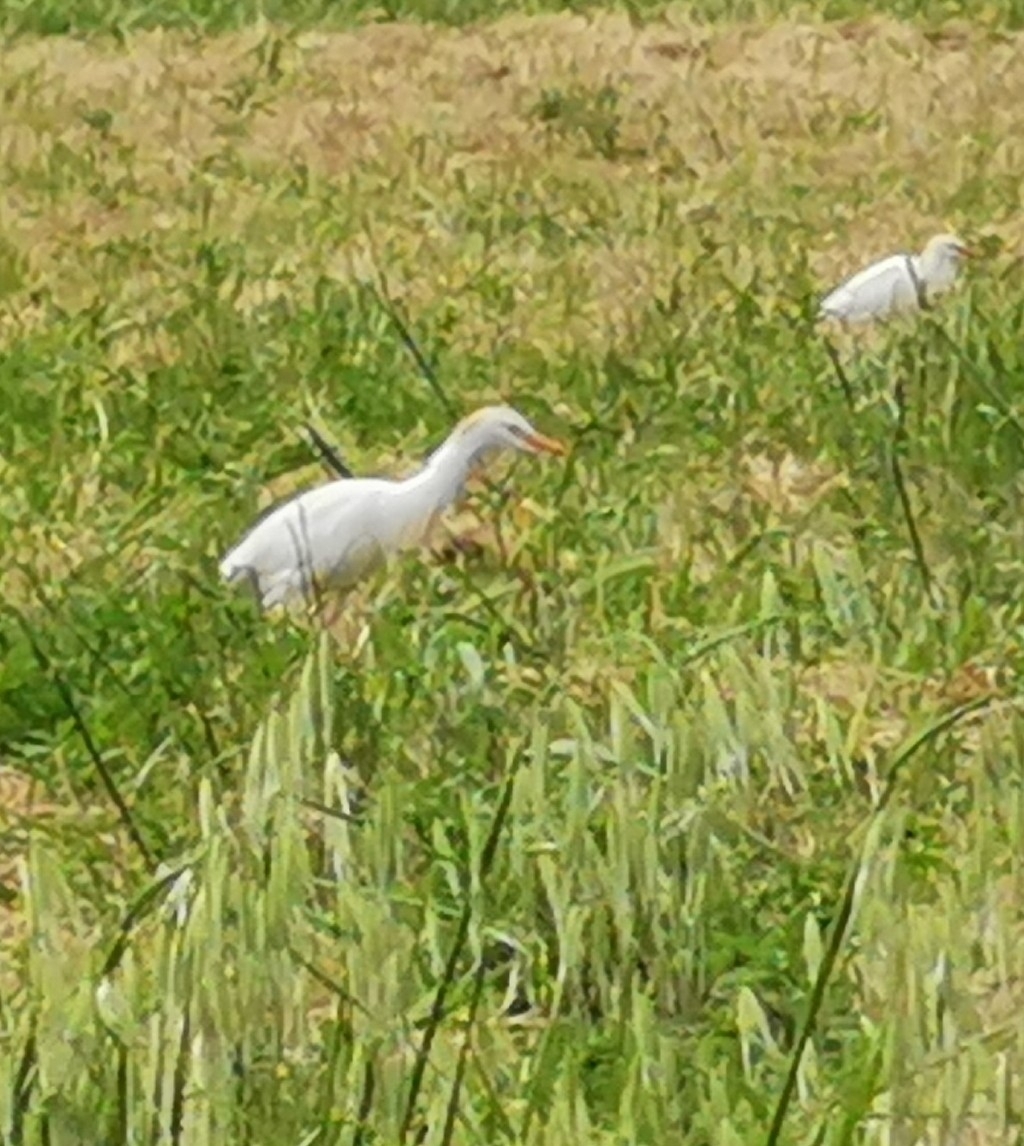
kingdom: Animalia
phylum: Chordata
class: Aves
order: Pelecaniformes
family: Ardeidae
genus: Bubulcus
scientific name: Bubulcus ibis
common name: Cattle egret
